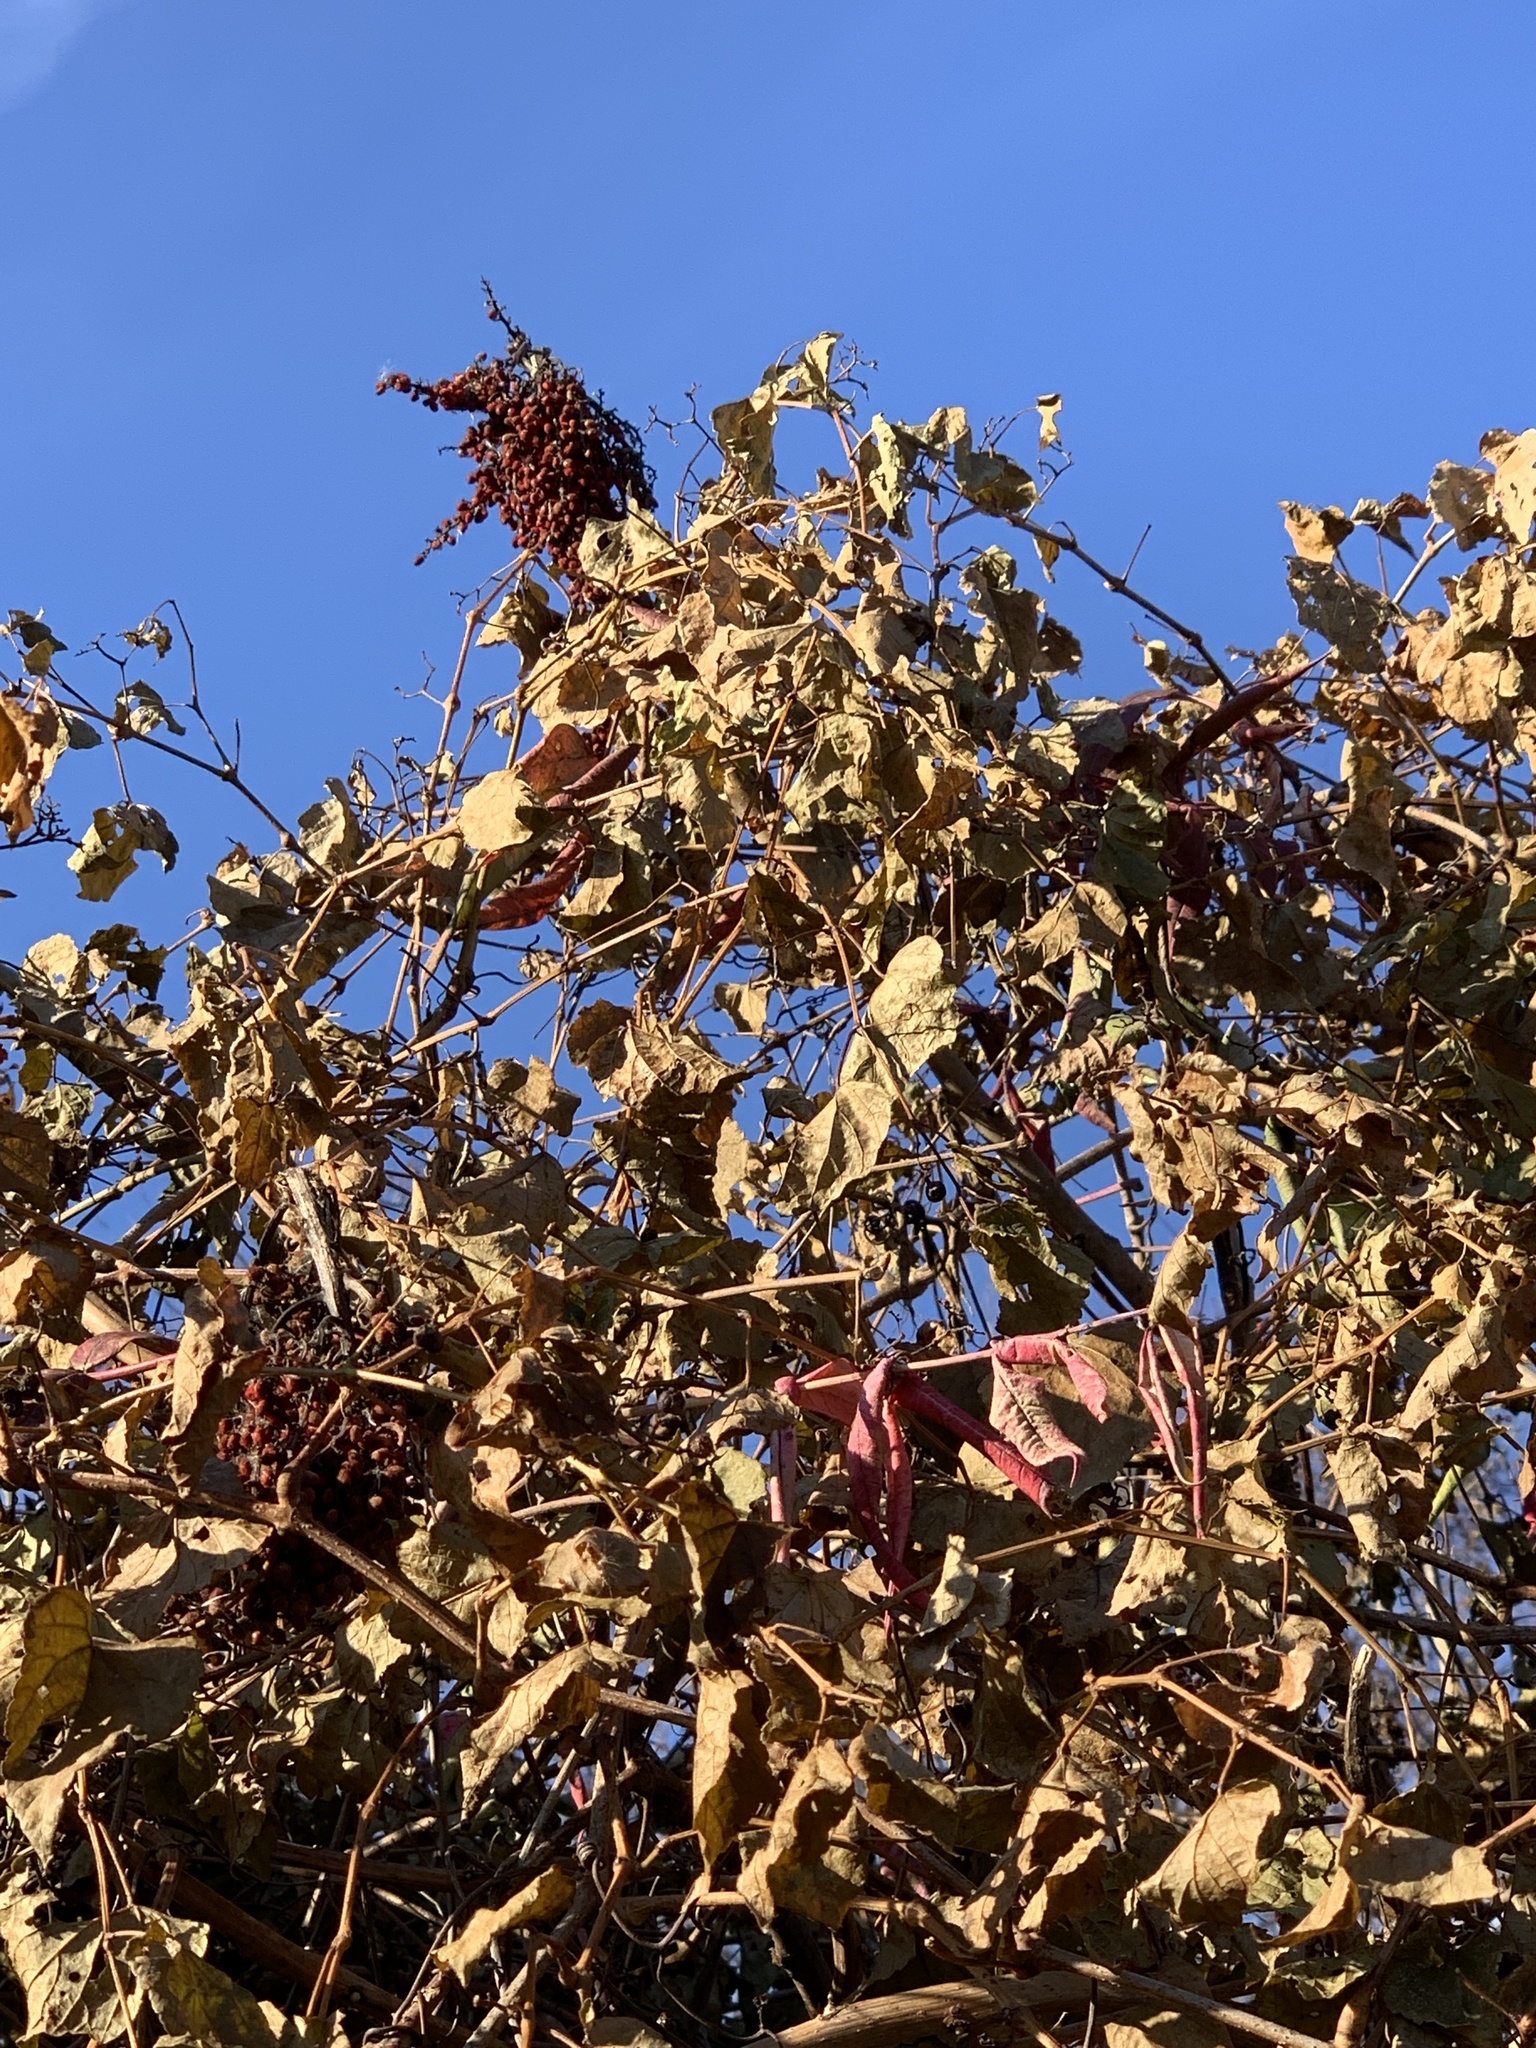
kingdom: Plantae
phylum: Tracheophyta
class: Magnoliopsida
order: Vitales
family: Vitaceae
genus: Ampelopsis
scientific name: Ampelopsis glandulosa
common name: Amur peppervine
